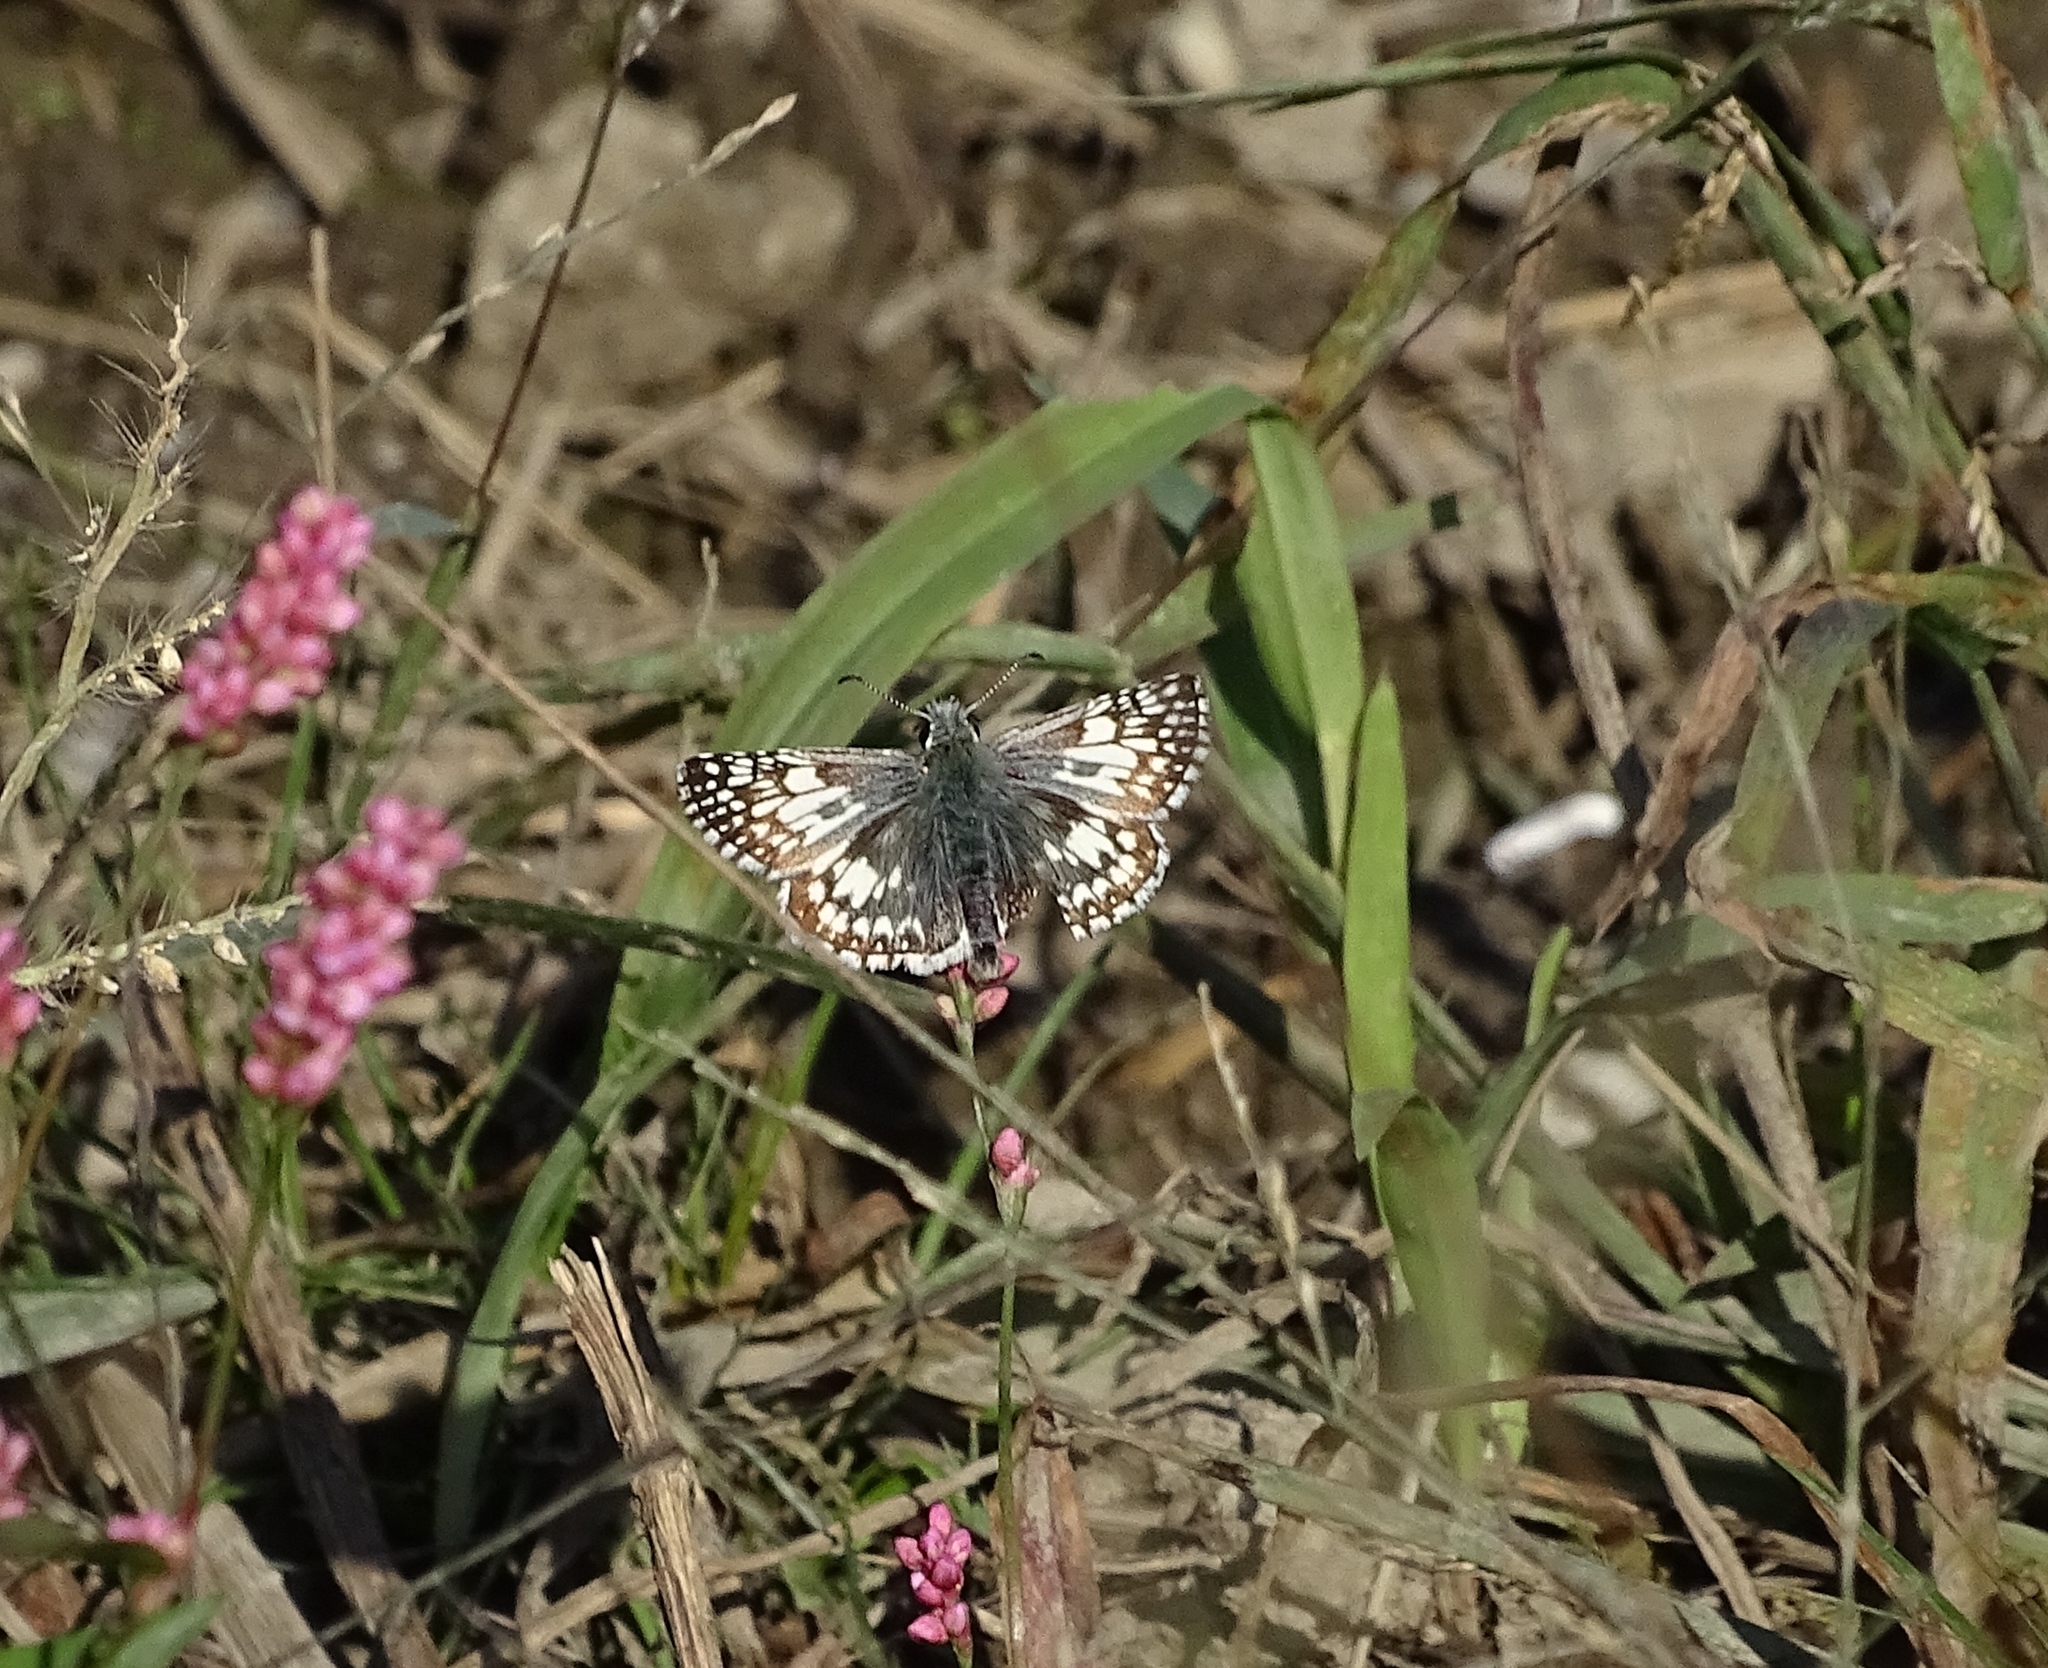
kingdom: Animalia
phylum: Arthropoda
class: Insecta
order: Lepidoptera
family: Hesperiidae
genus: Burnsius
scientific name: Burnsius communis
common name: Common checkered-skipper
